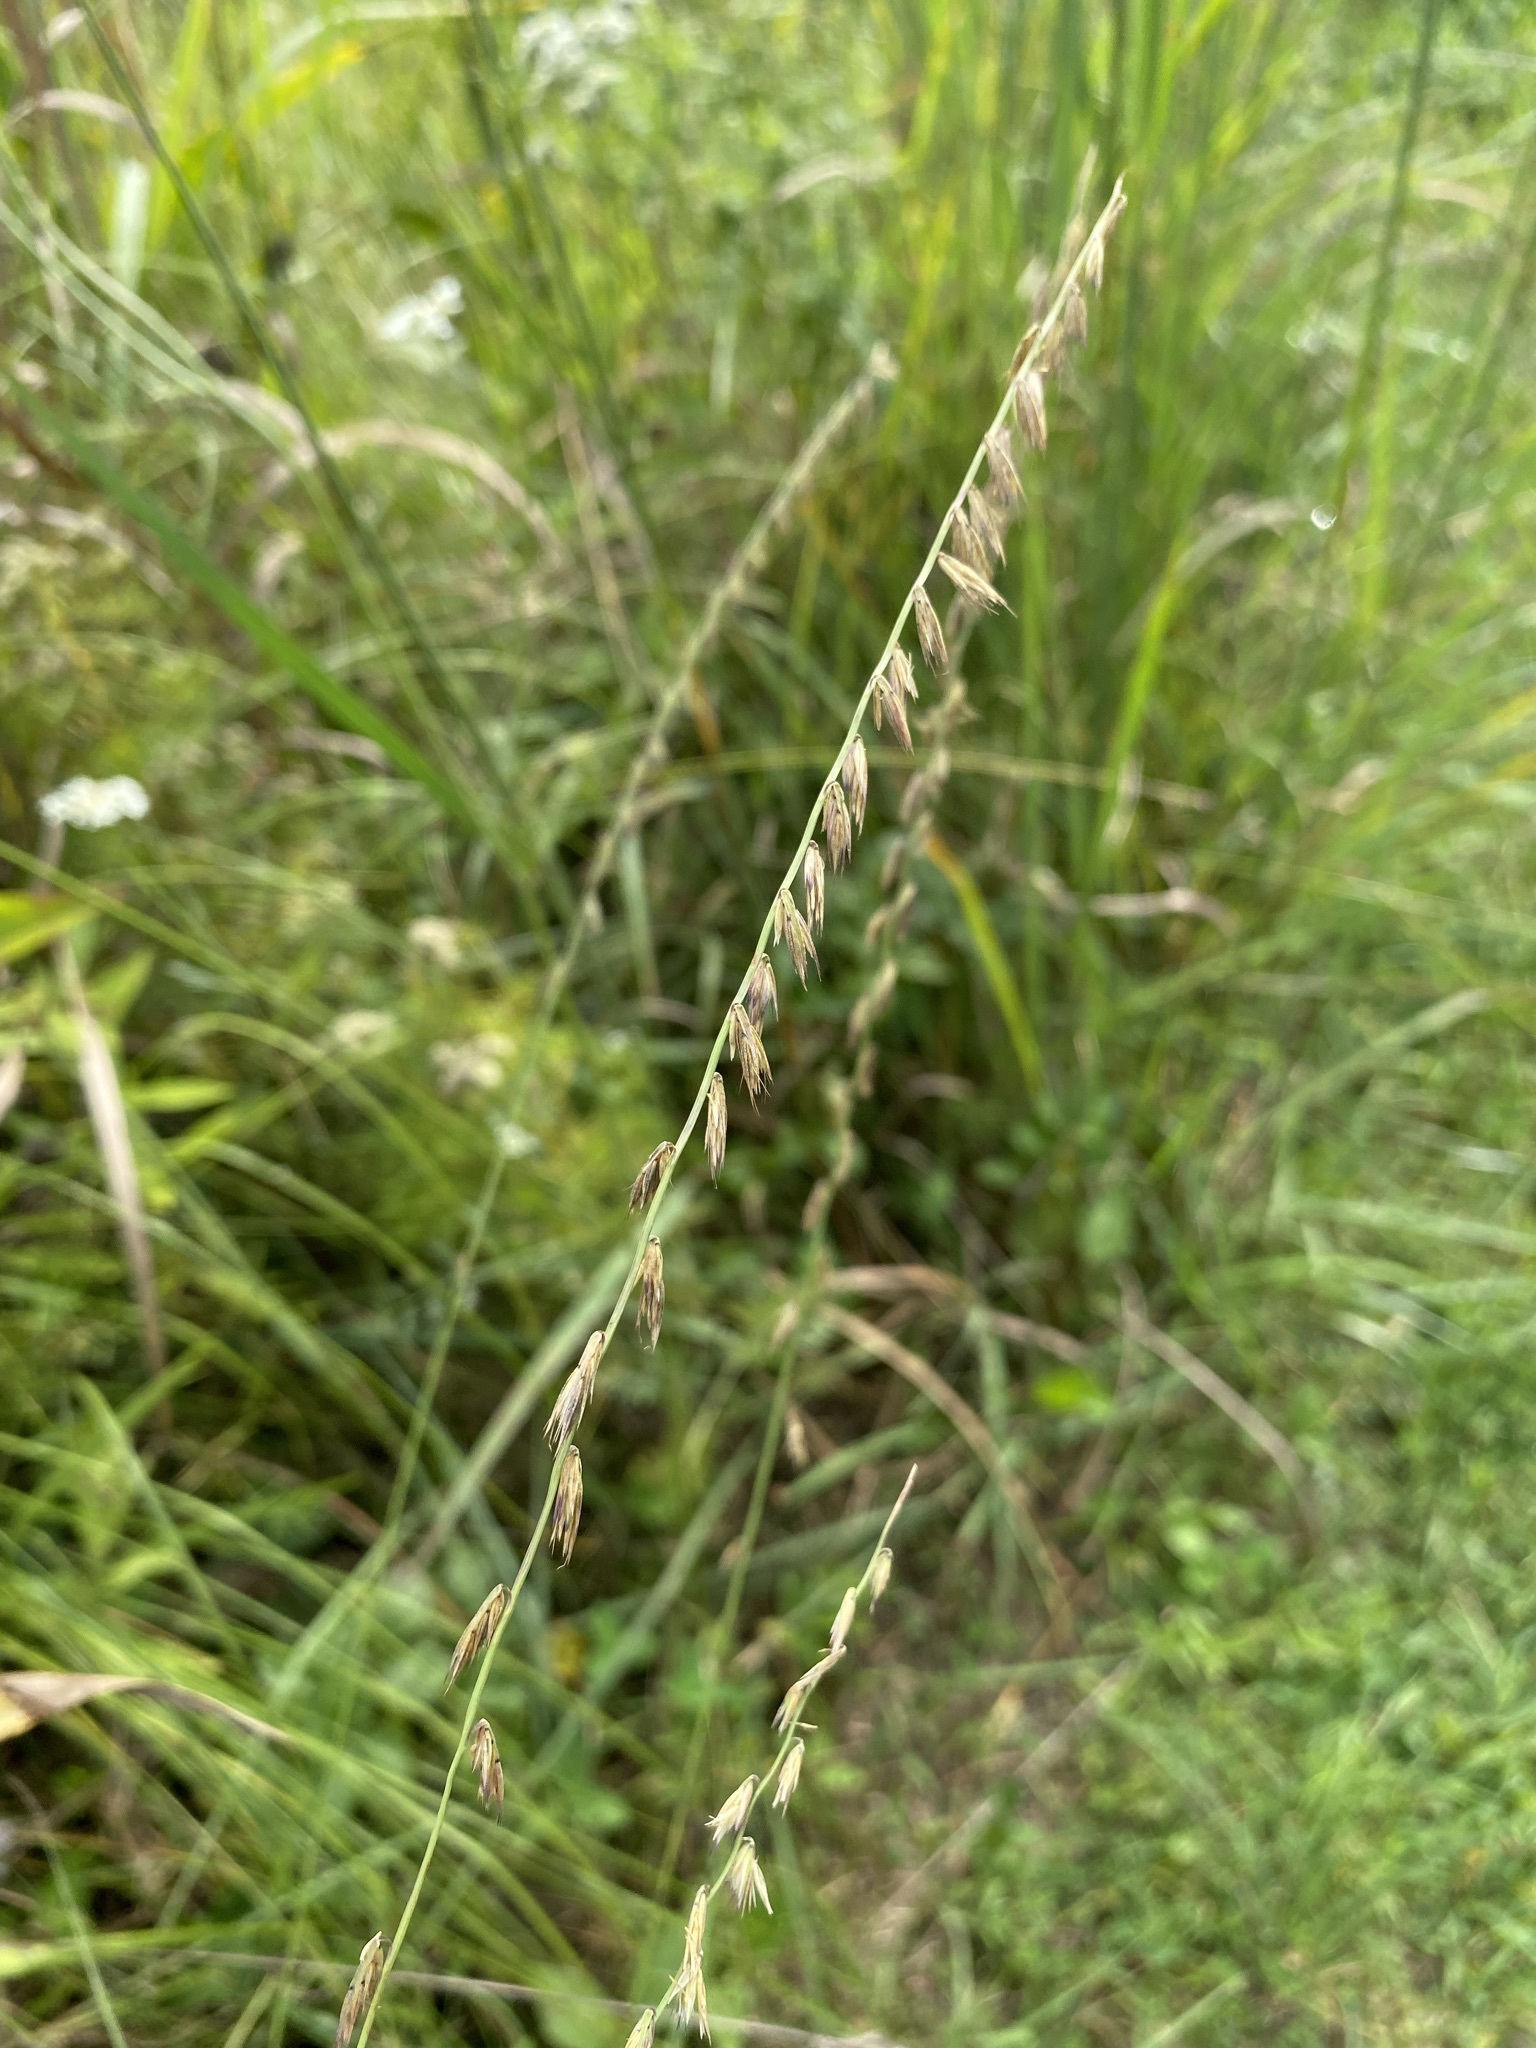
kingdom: Plantae
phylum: Tracheophyta
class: Liliopsida
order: Poales
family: Poaceae
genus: Bouteloua
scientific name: Bouteloua curtipendula
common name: Side-oats grama
